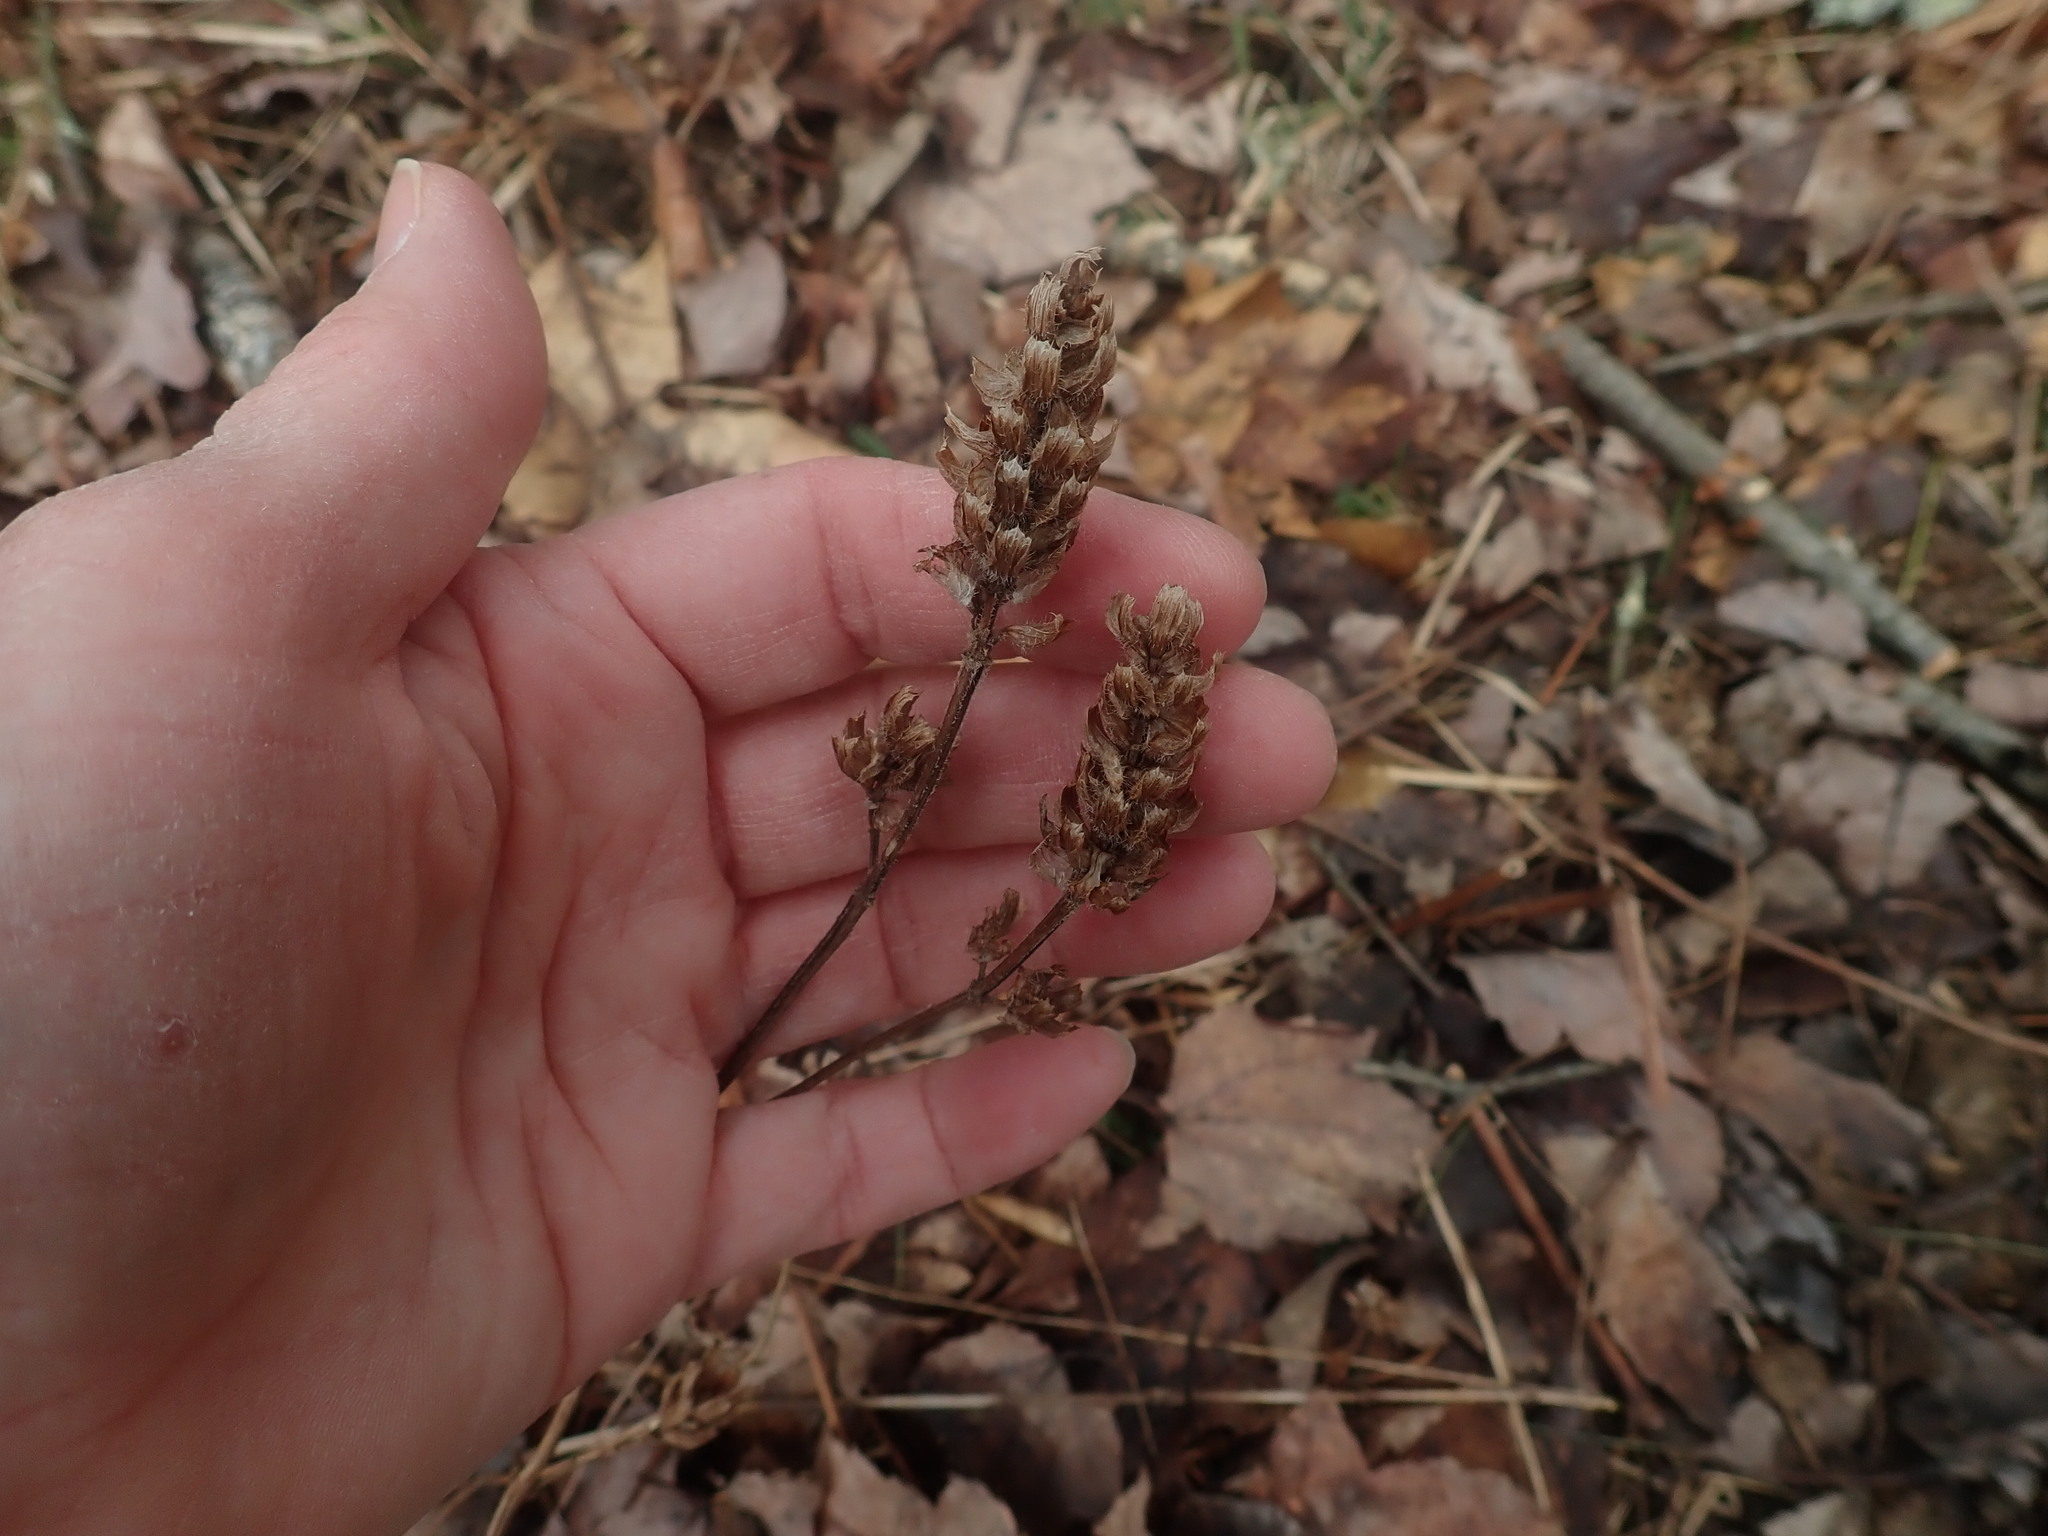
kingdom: Plantae
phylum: Tracheophyta
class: Magnoliopsida
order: Lamiales
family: Lamiaceae
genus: Prunella
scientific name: Prunella vulgaris
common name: Heal-all
